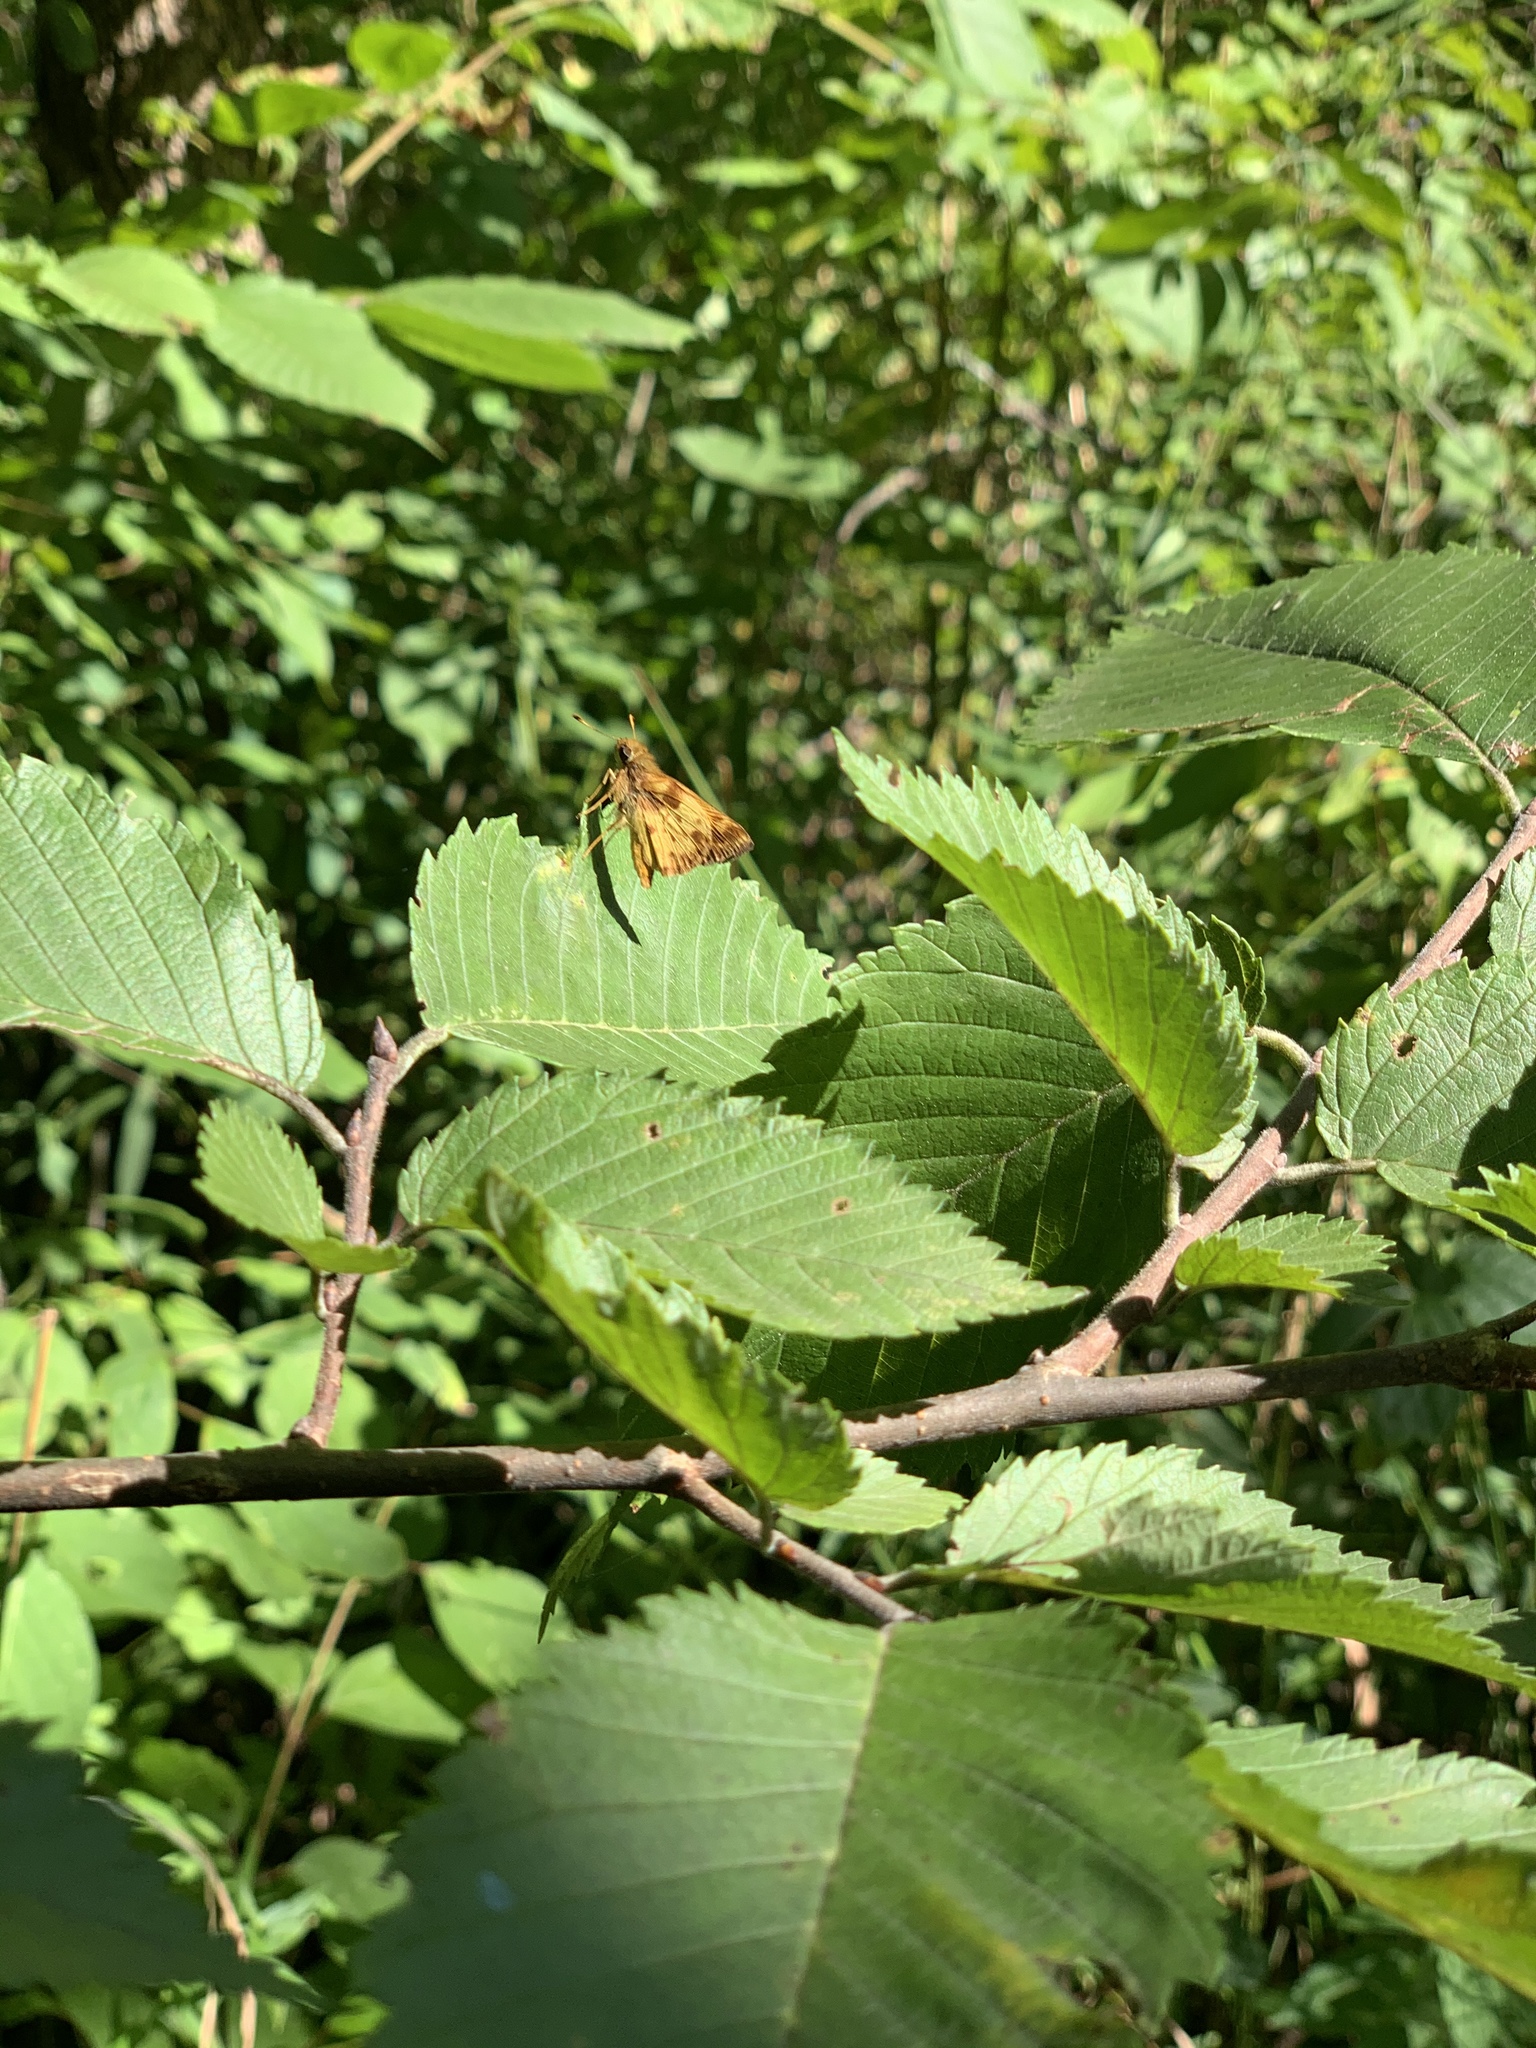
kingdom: Animalia
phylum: Arthropoda
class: Insecta
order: Lepidoptera
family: Hesperiidae
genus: Lon
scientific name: Lon zabulon
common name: Zabulon skipper
